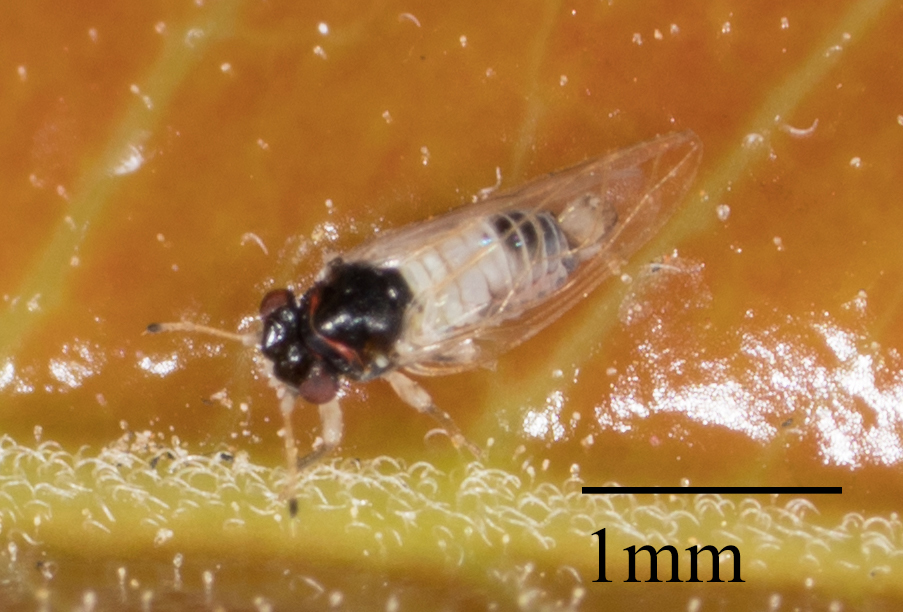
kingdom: Animalia
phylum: Arthropoda
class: Insecta
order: Hemiptera
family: Calophyidae
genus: Calophya
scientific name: Calophya californica
